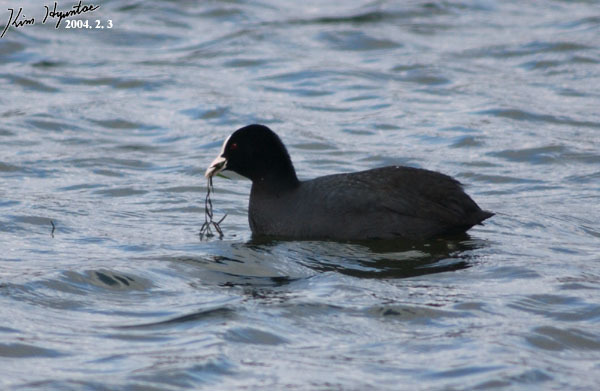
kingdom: Animalia
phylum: Chordata
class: Aves
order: Gruiformes
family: Rallidae
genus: Fulica
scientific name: Fulica atra
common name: Eurasian coot
